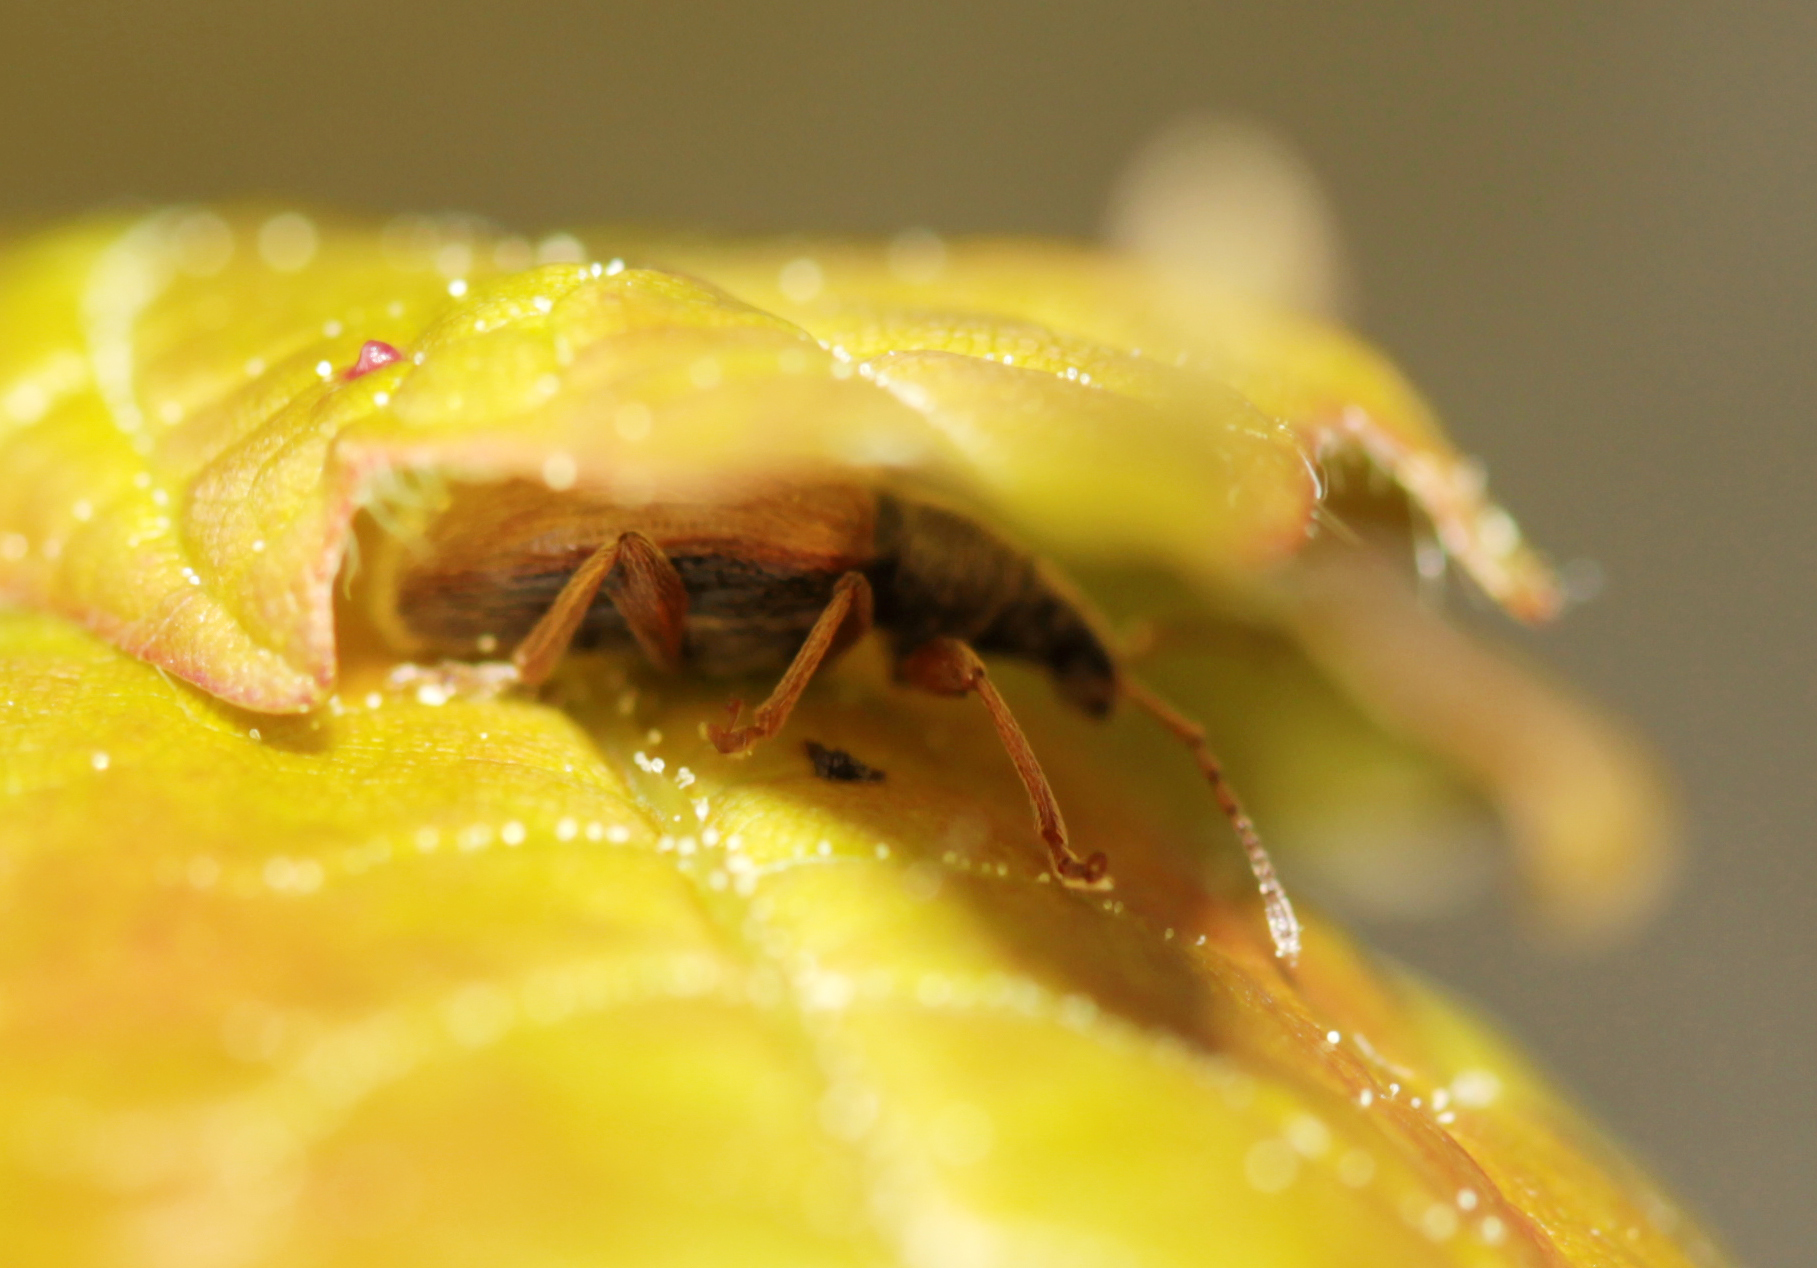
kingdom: Animalia
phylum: Arthropoda
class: Insecta
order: Coleoptera
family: Curculionidae
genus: Phyllobius
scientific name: Phyllobius oblongus
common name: Brown leaf weevil
